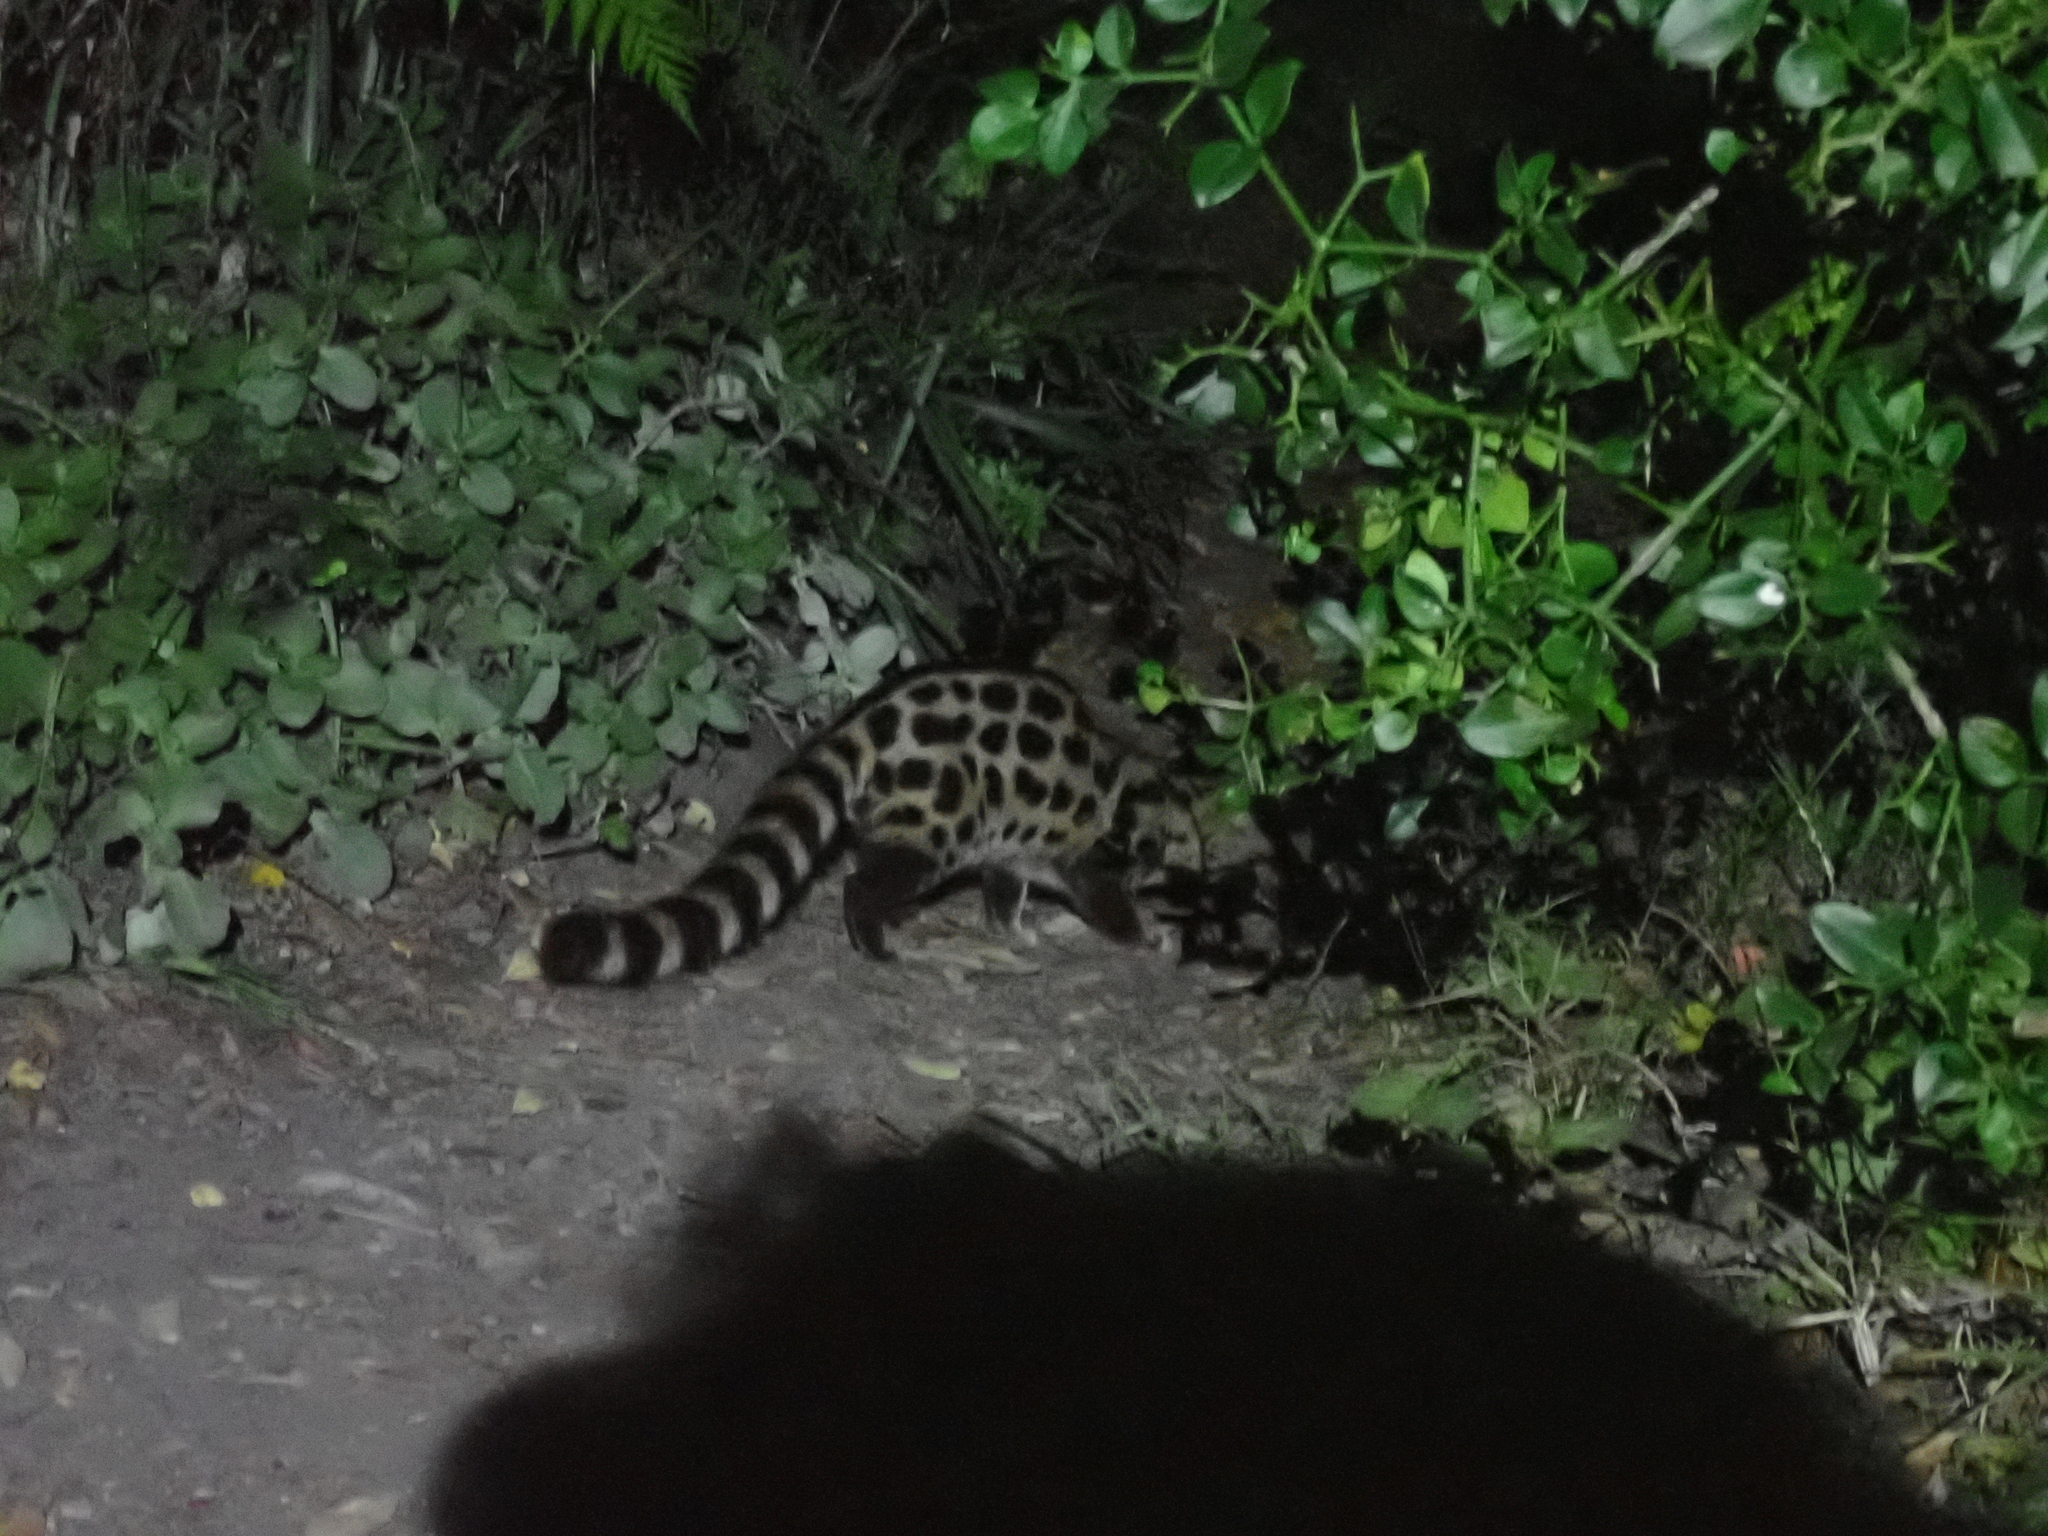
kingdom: Animalia
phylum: Chordata
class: Mammalia
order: Carnivora
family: Viverridae
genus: Genetta
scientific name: Genetta tigrina
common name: Cape genet
